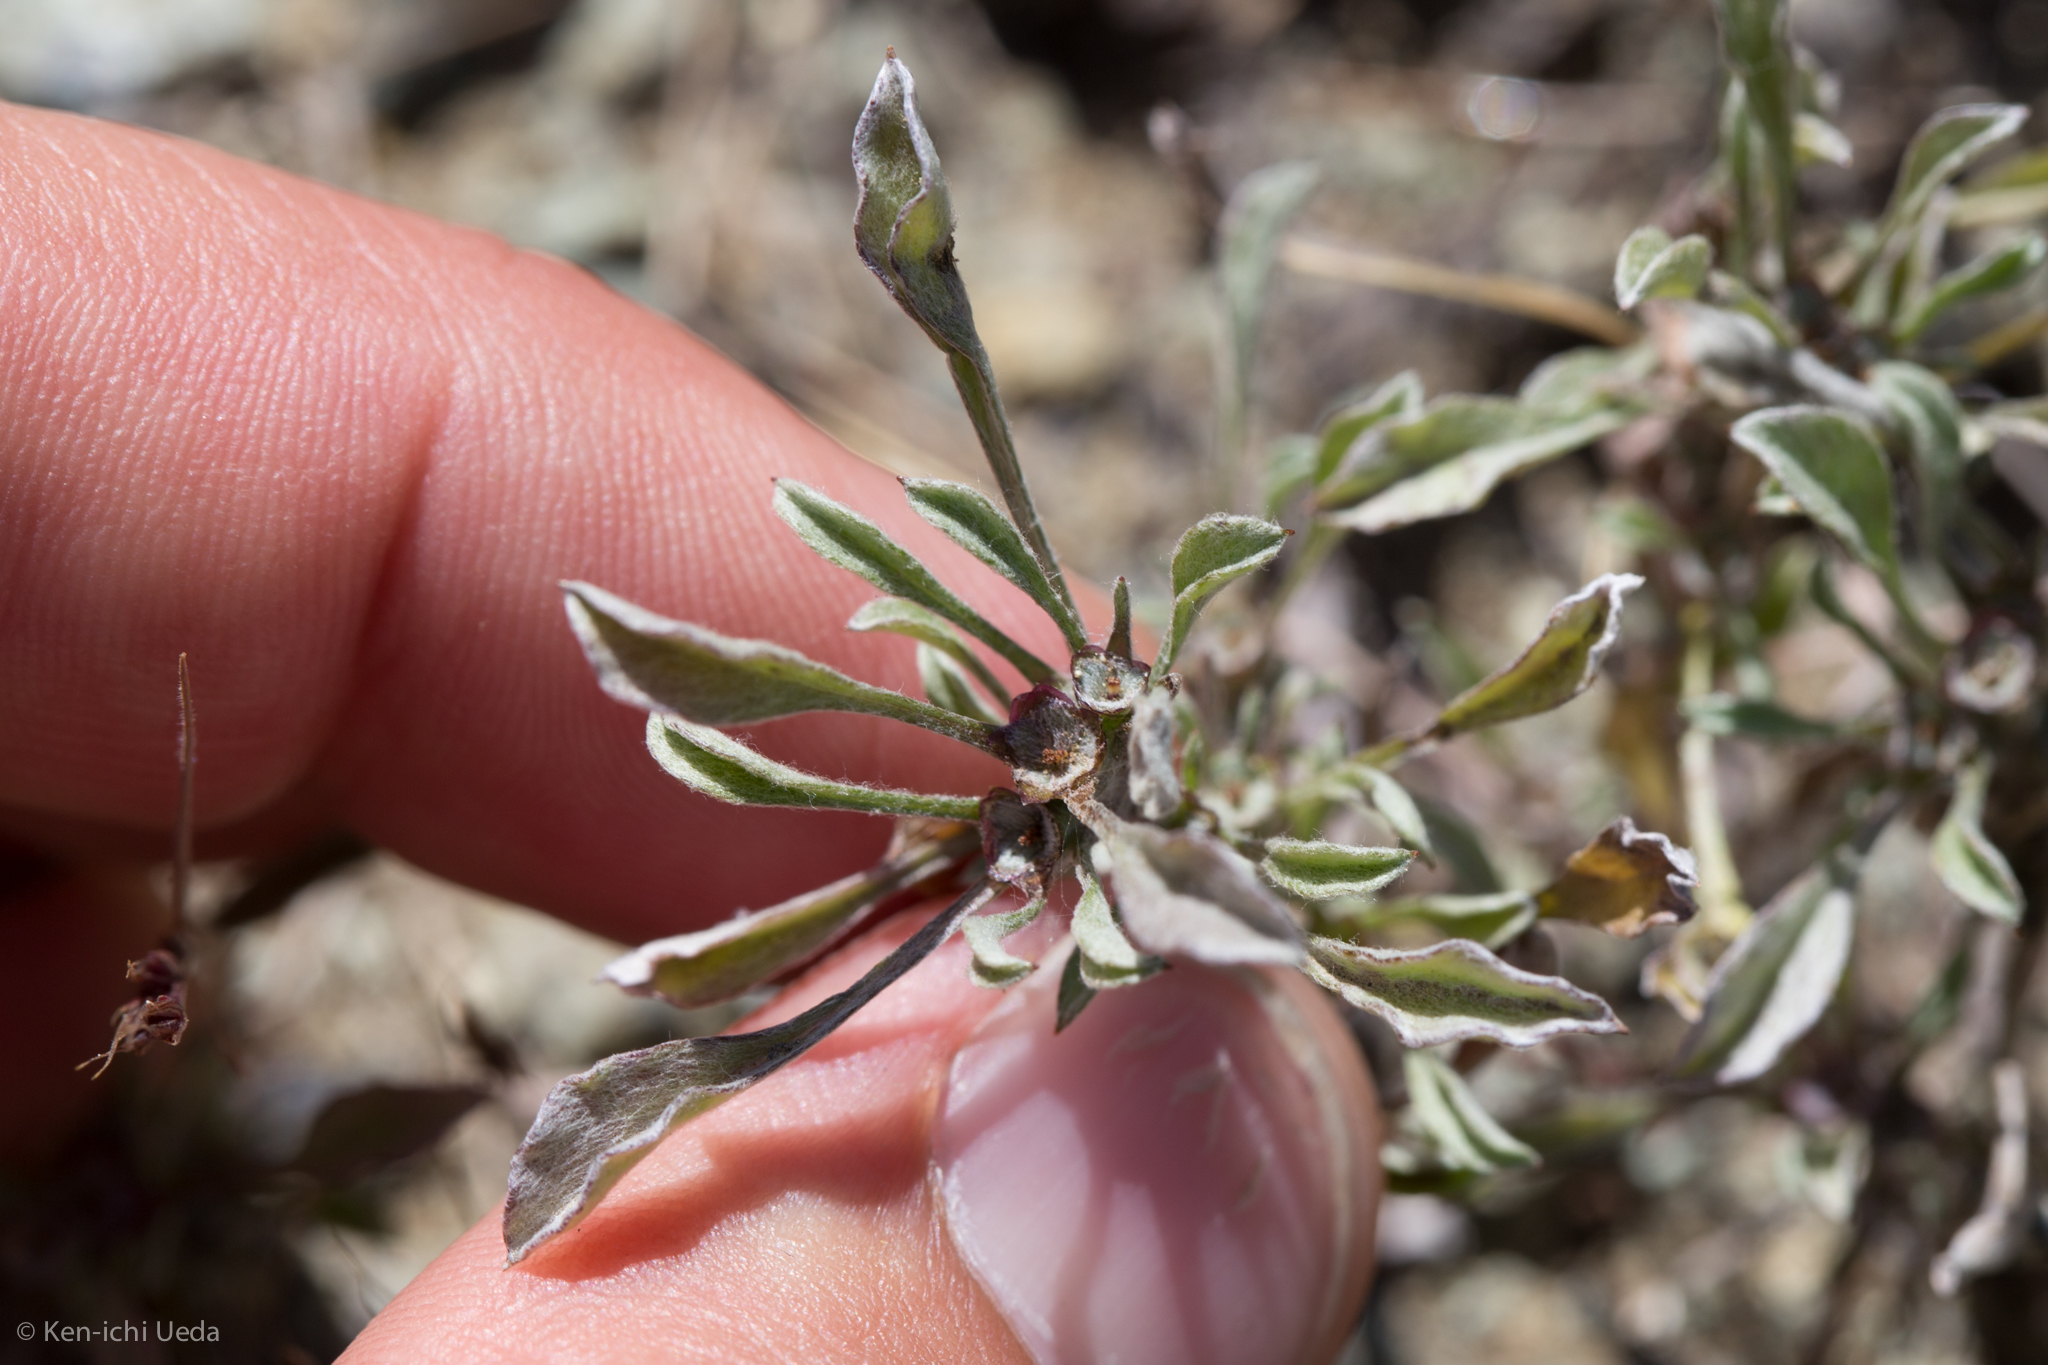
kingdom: Plantae
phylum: Tracheophyta
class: Magnoliopsida
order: Asterales
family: Asteraceae
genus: Hesperevax
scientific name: Hesperevax sparsiflora
